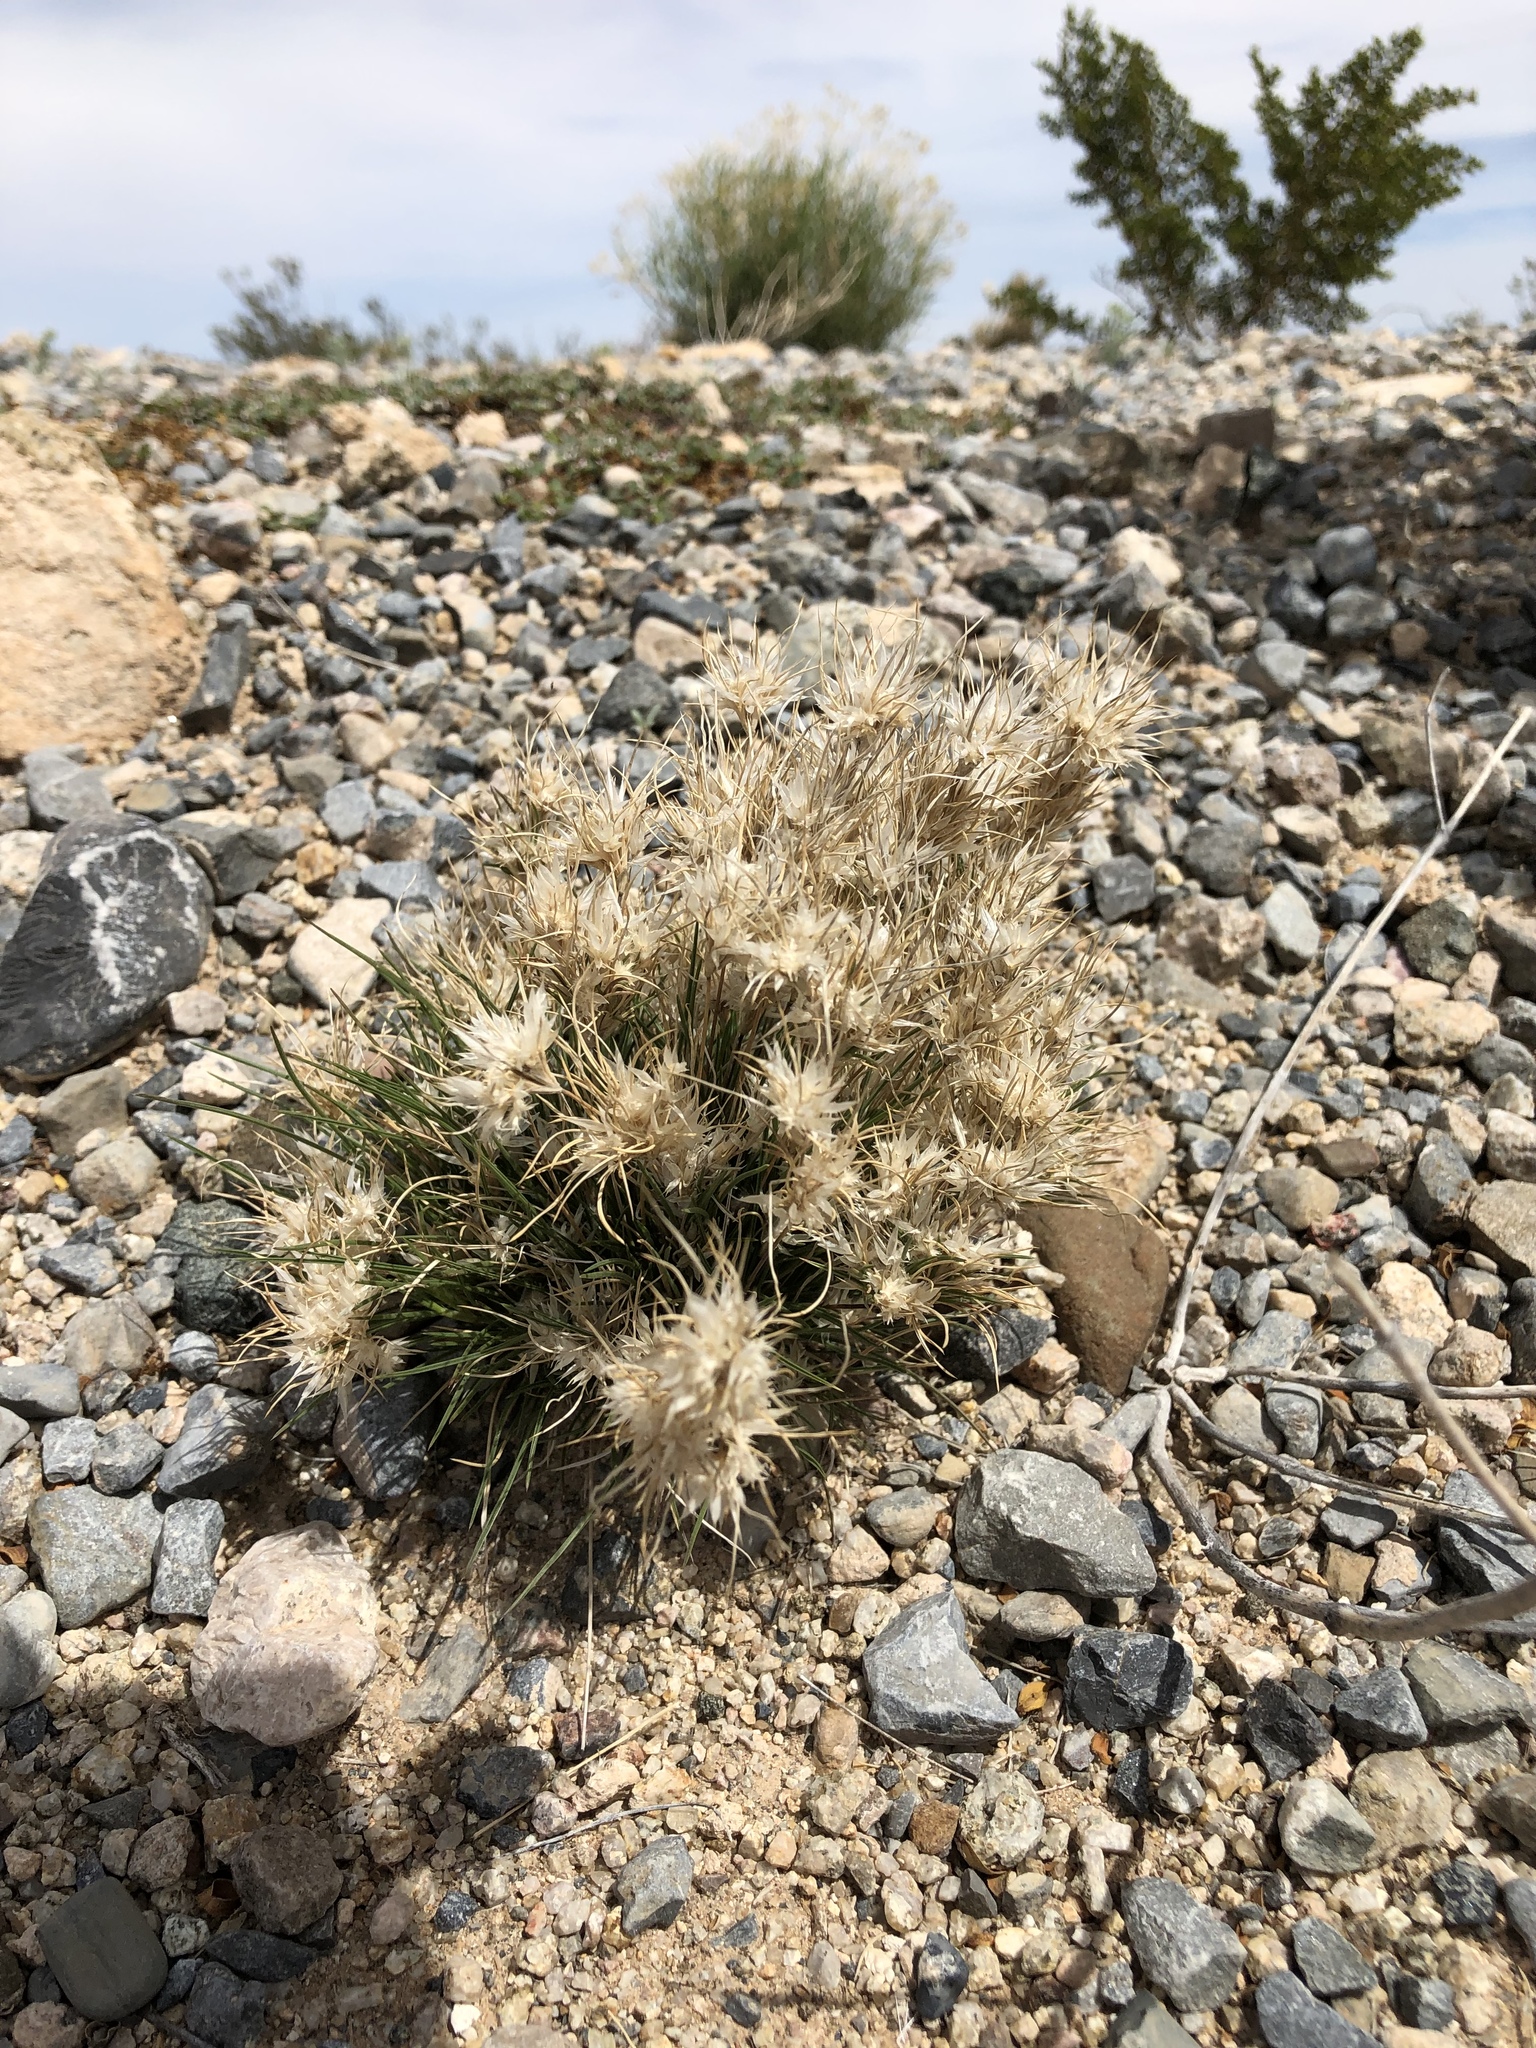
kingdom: Plantae
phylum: Tracheophyta
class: Liliopsida
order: Poales
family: Poaceae
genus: Dasyochloa
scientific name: Dasyochloa pulchella
